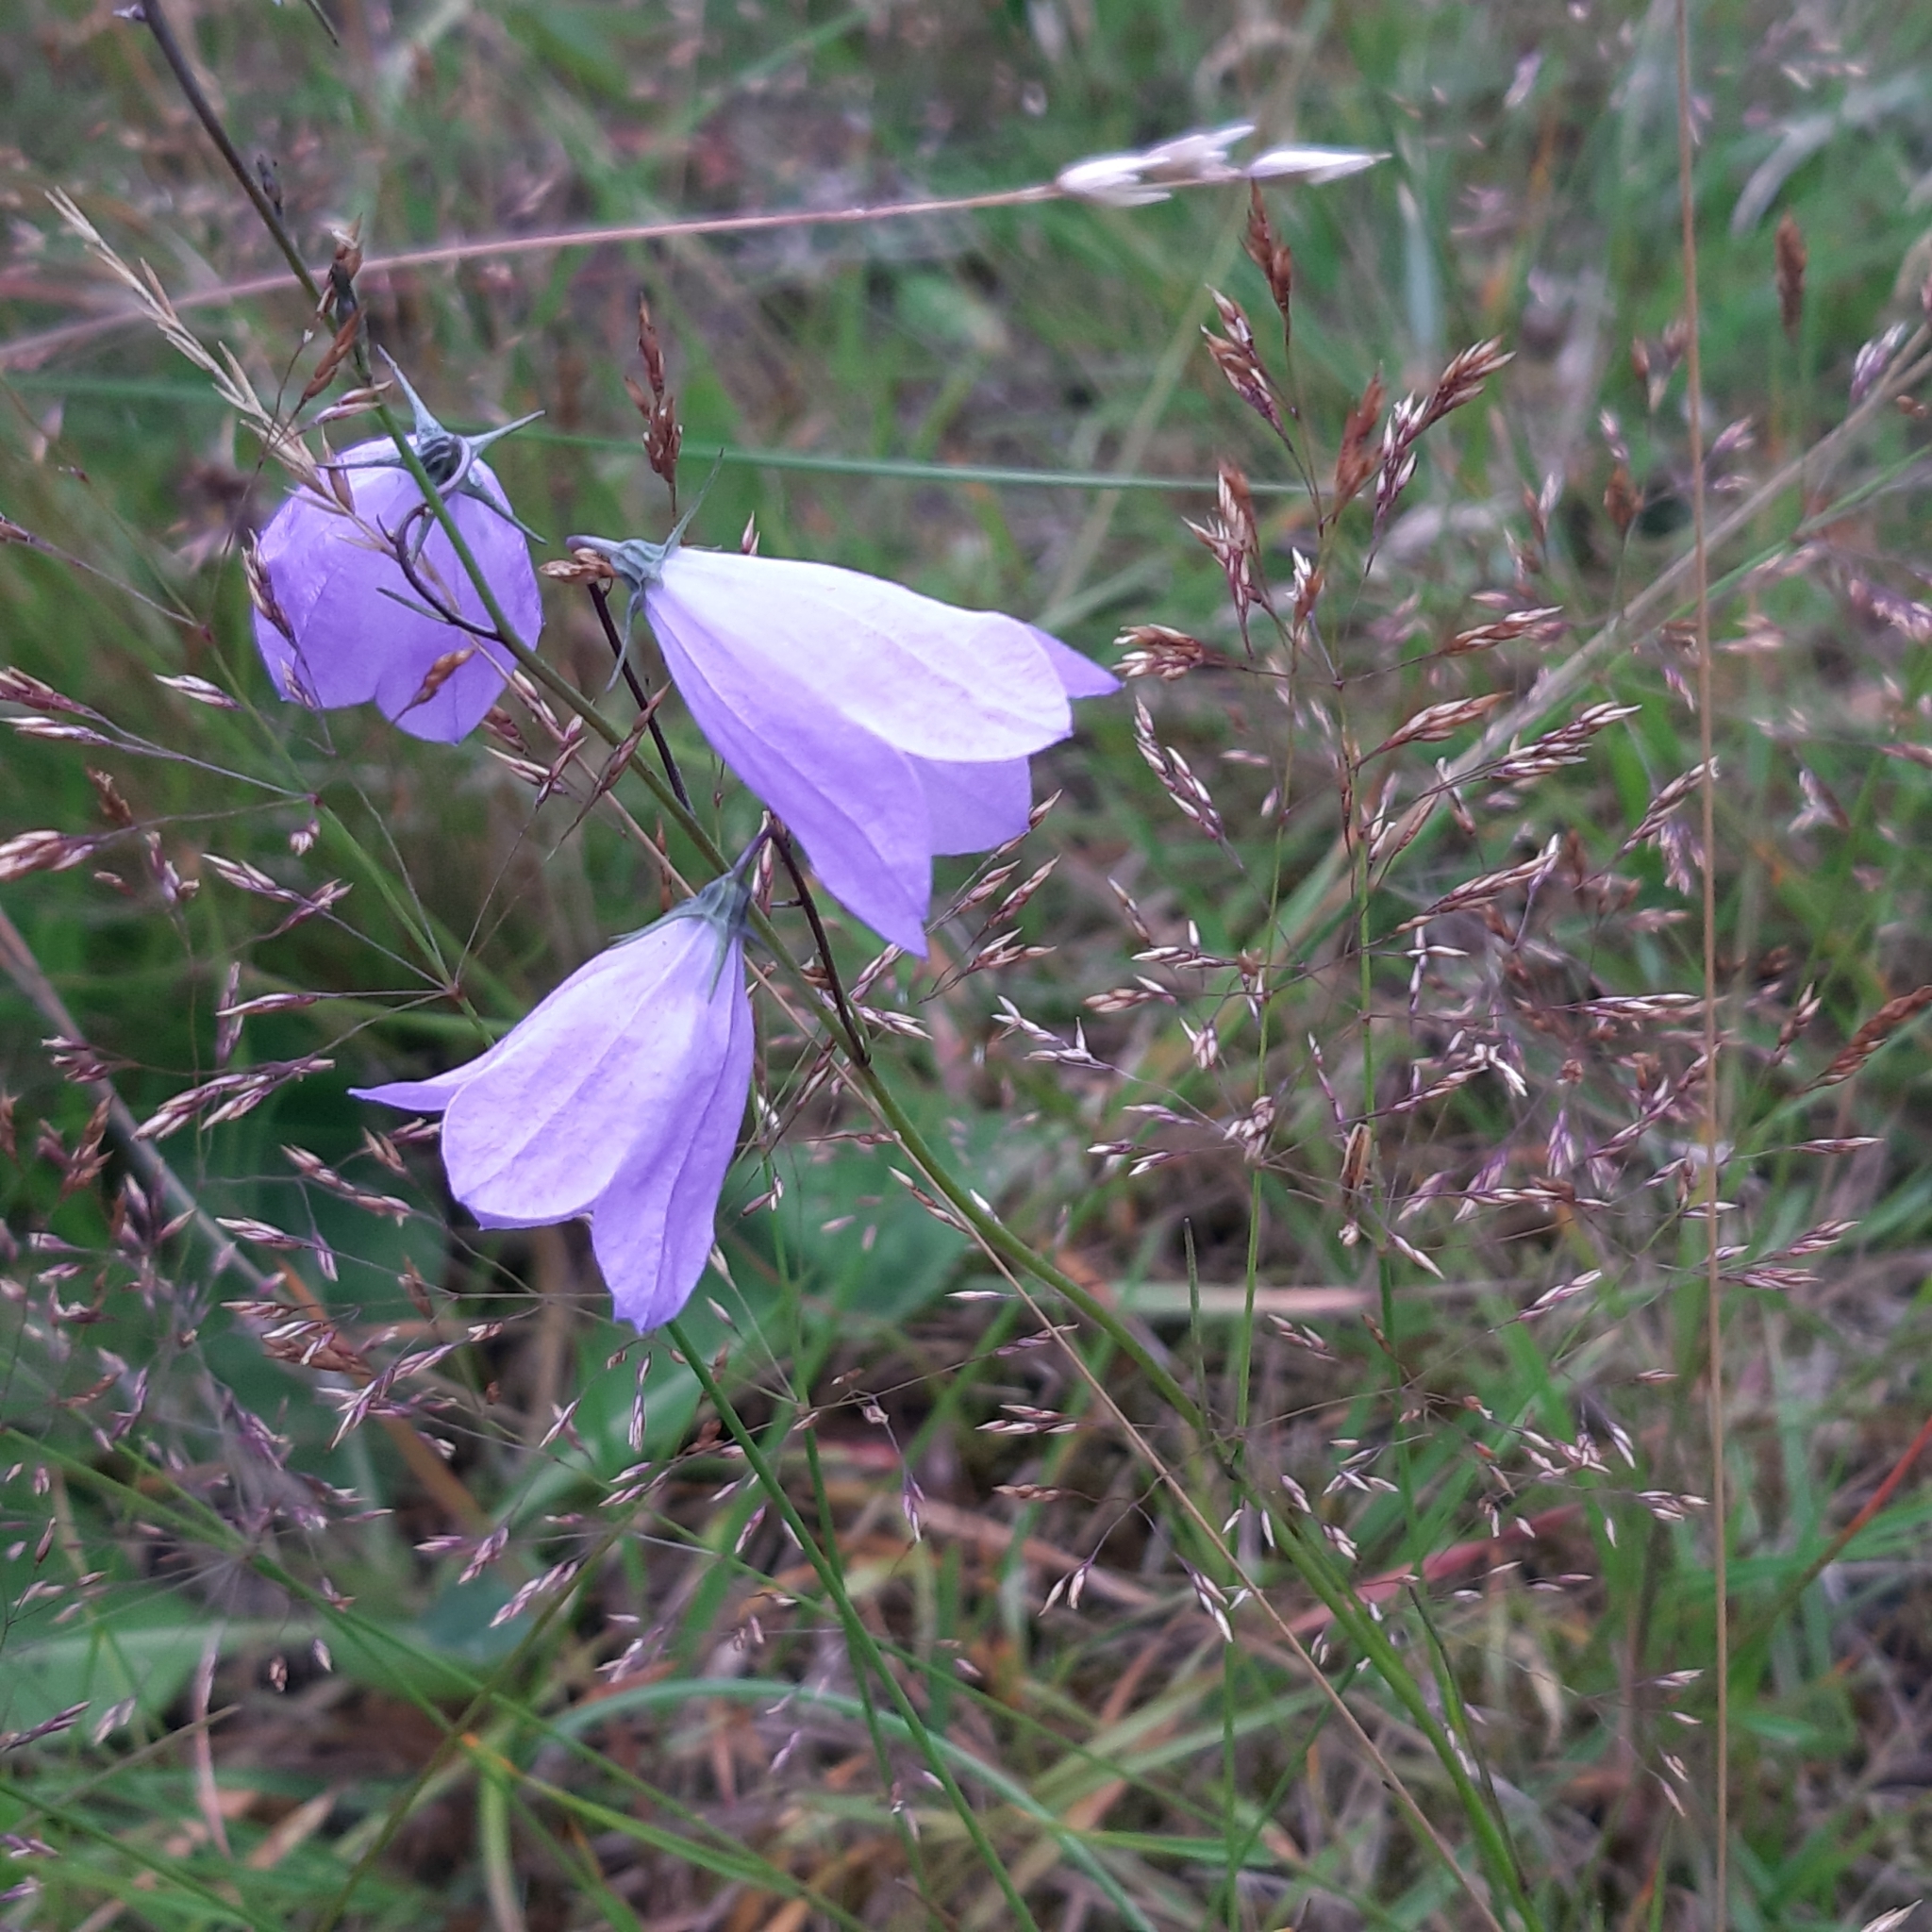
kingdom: Plantae
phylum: Tracheophyta
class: Magnoliopsida
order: Asterales
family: Campanulaceae
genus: Campanula
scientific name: Campanula rotundifolia
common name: Harebell
